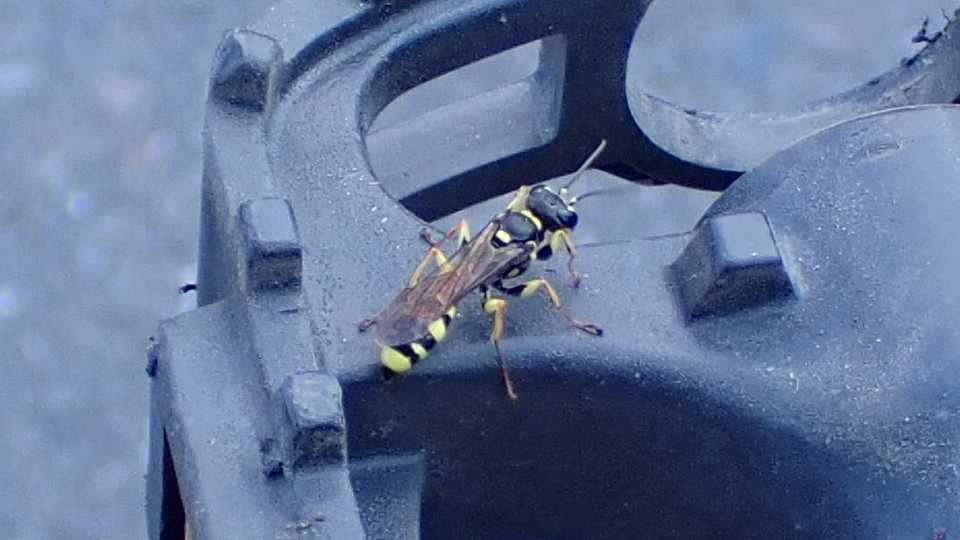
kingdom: Animalia
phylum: Arthropoda
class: Insecta
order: Hymenoptera
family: Crabronidae
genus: Mellinus
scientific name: Mellinus arvensis
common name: Field digger wasp
